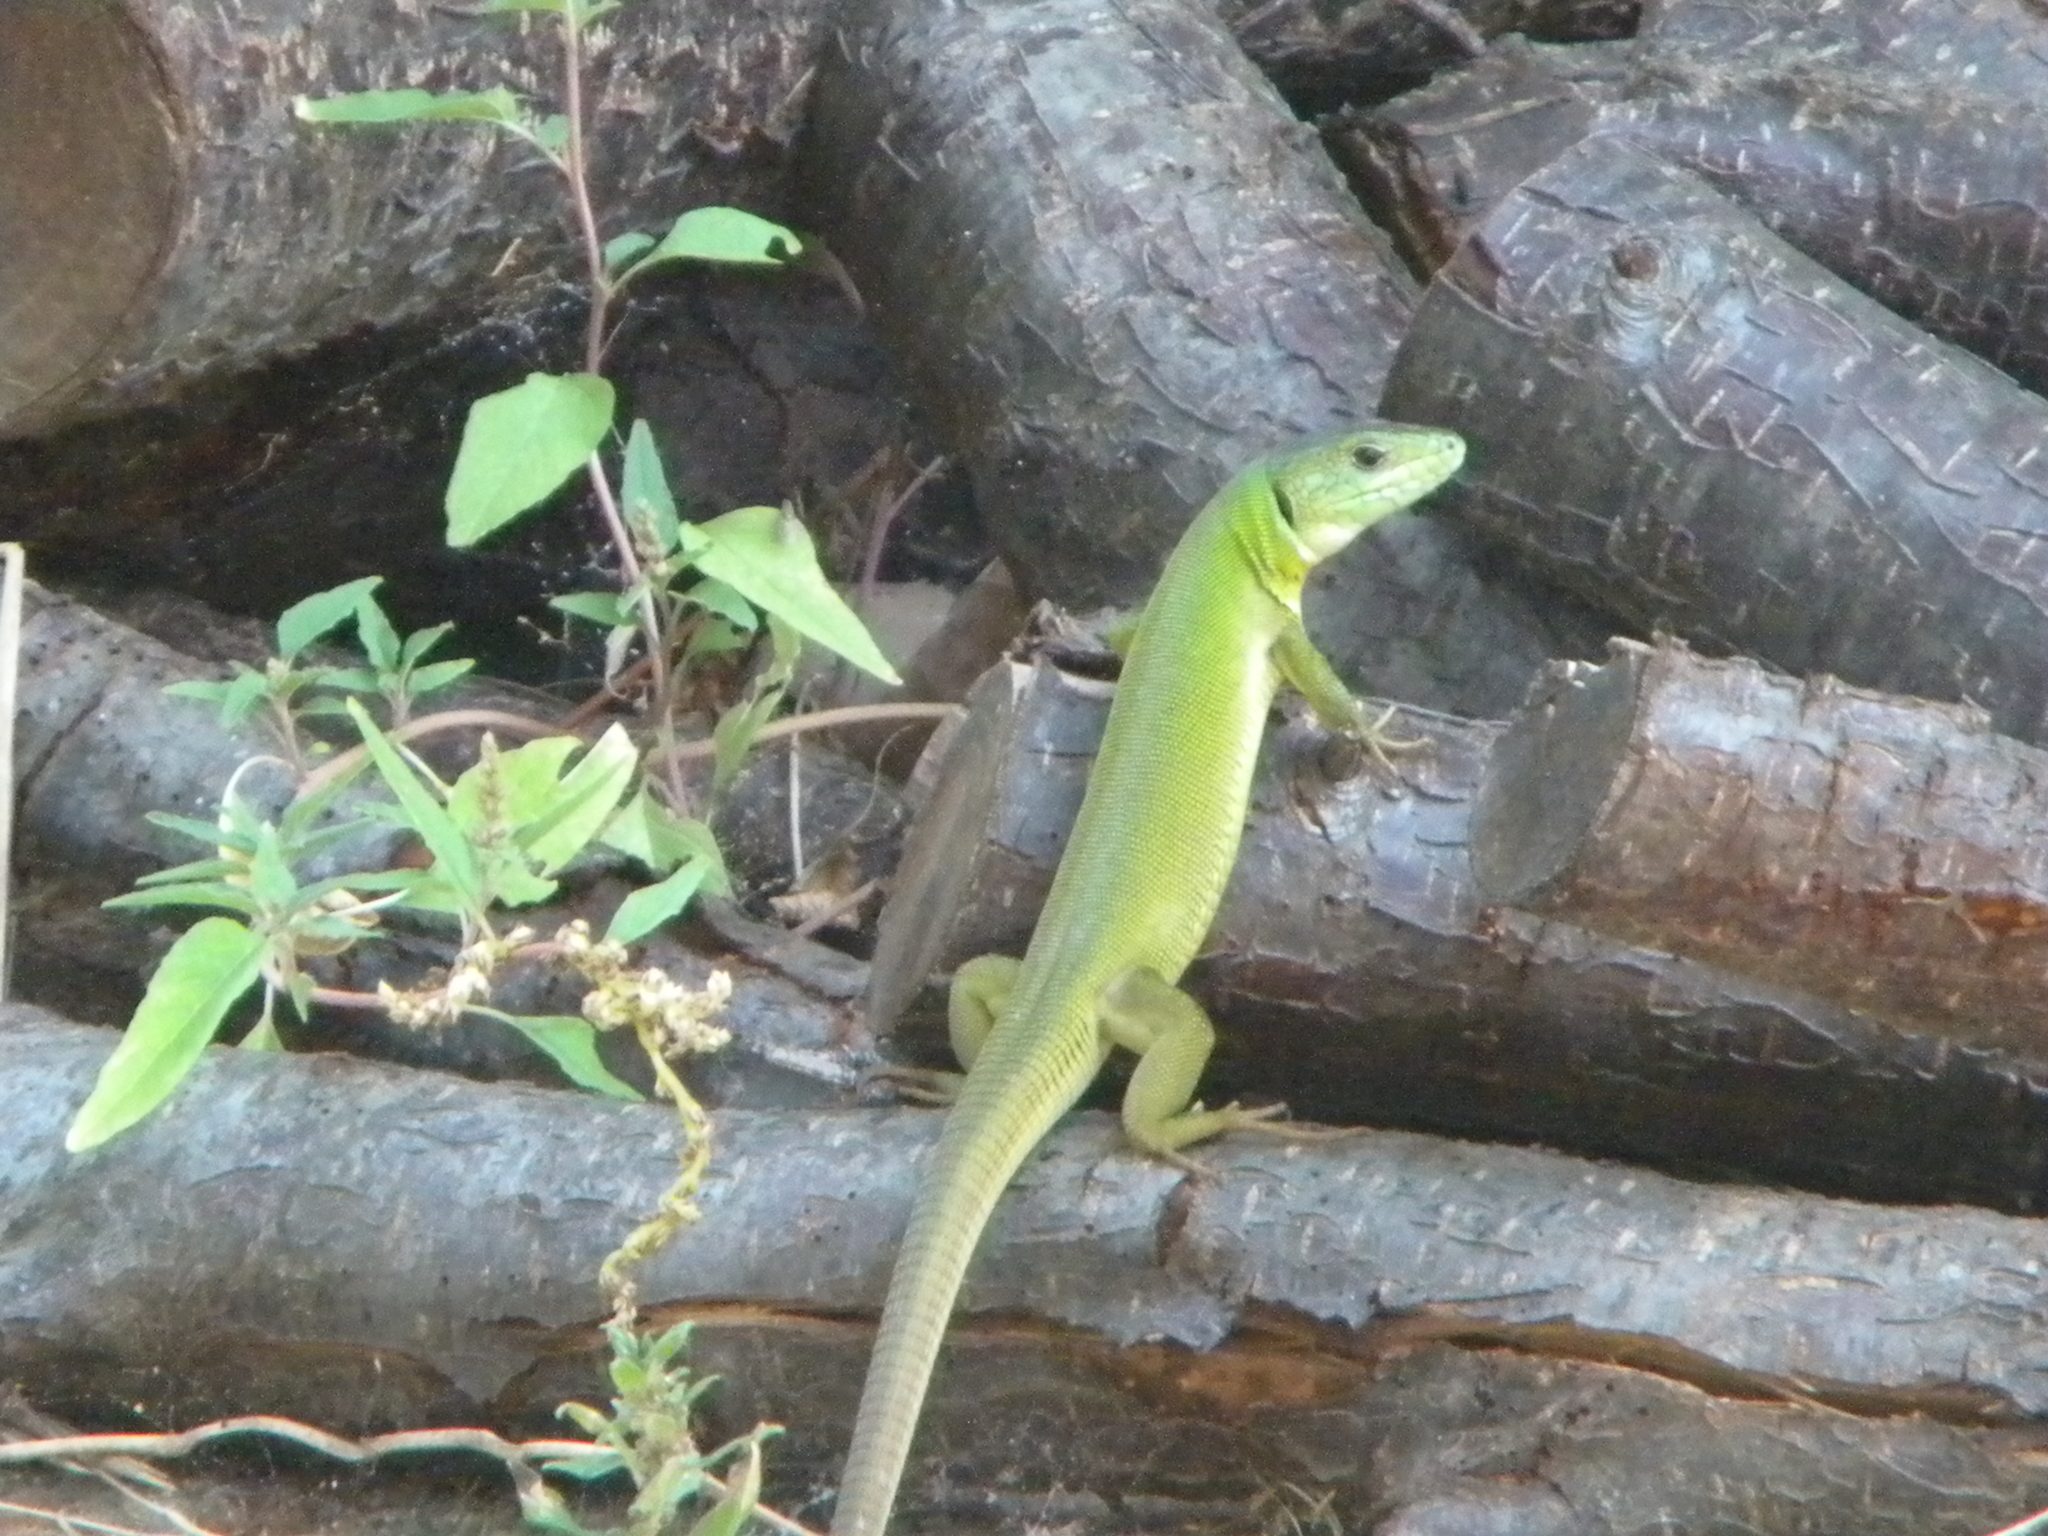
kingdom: Animalia
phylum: Chordata
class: Squamata
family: Lacertidae
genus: Lacerta
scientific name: Lacerta trilineata
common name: Balkan green lizard
